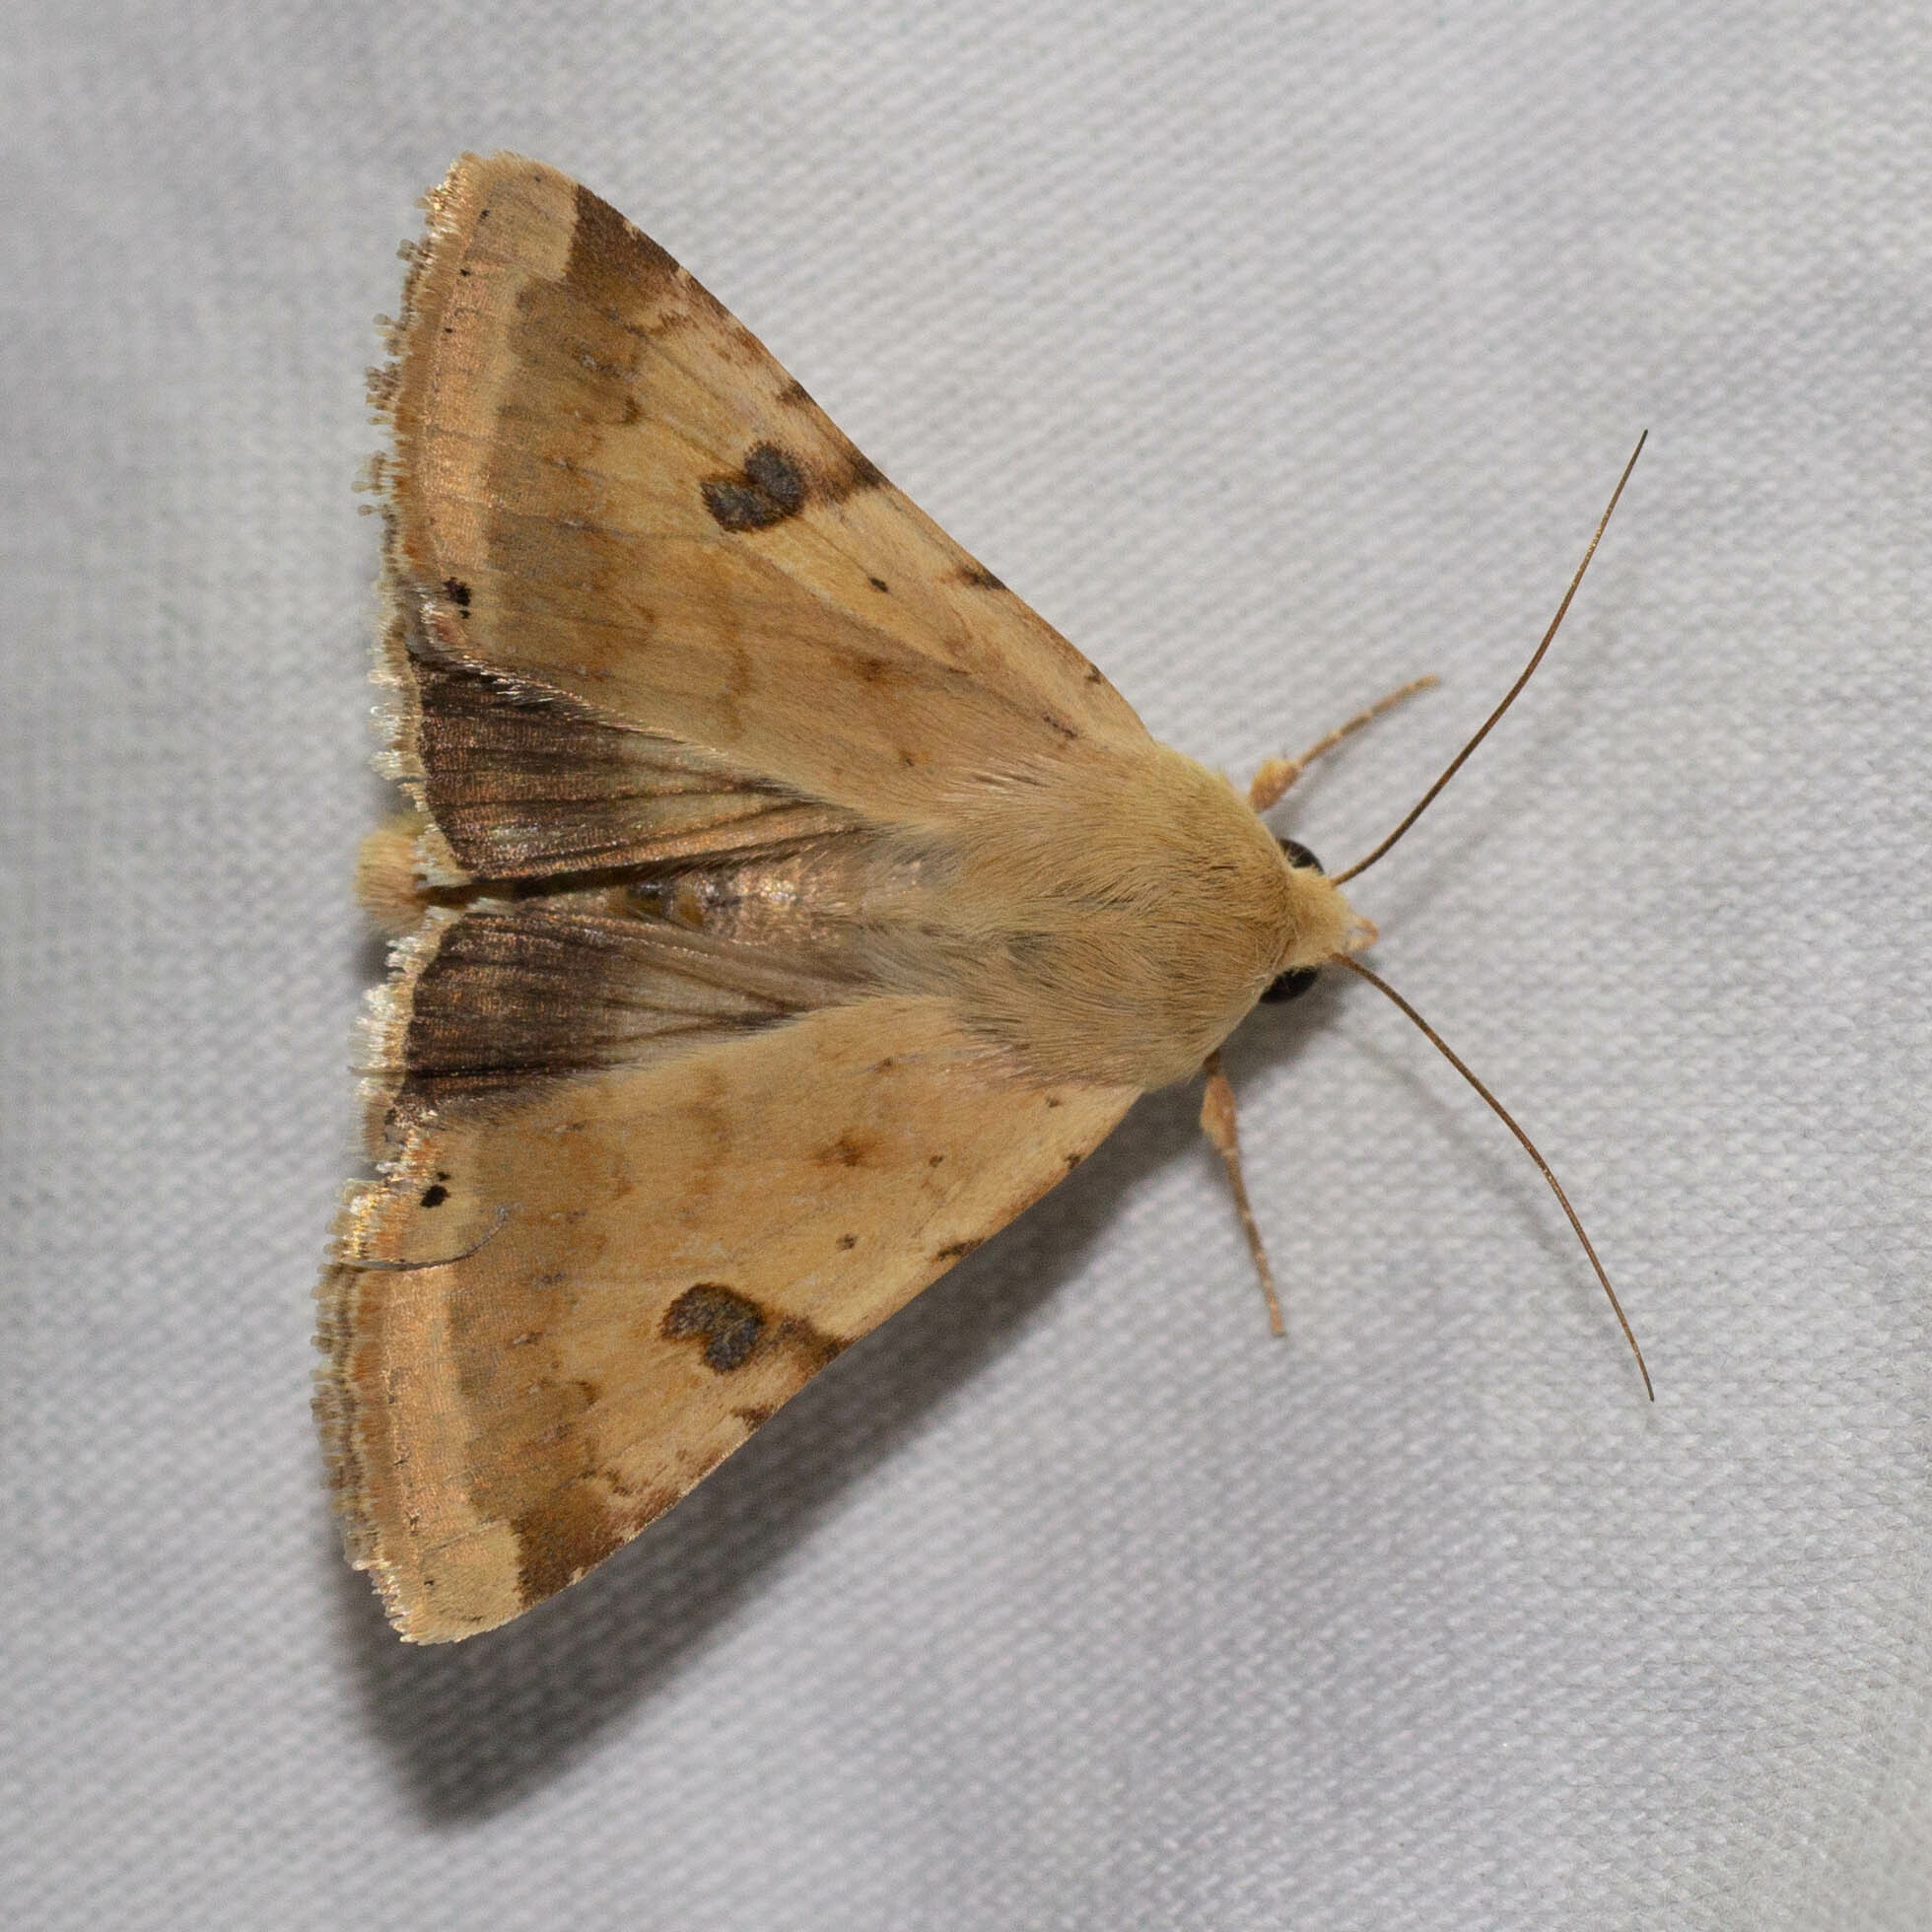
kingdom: Animalia
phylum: Arthropoda
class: Insecta
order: Lepidoptera
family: Noctuidae
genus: Heliothis
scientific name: Heliothis peltigera
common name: Bordered straw
